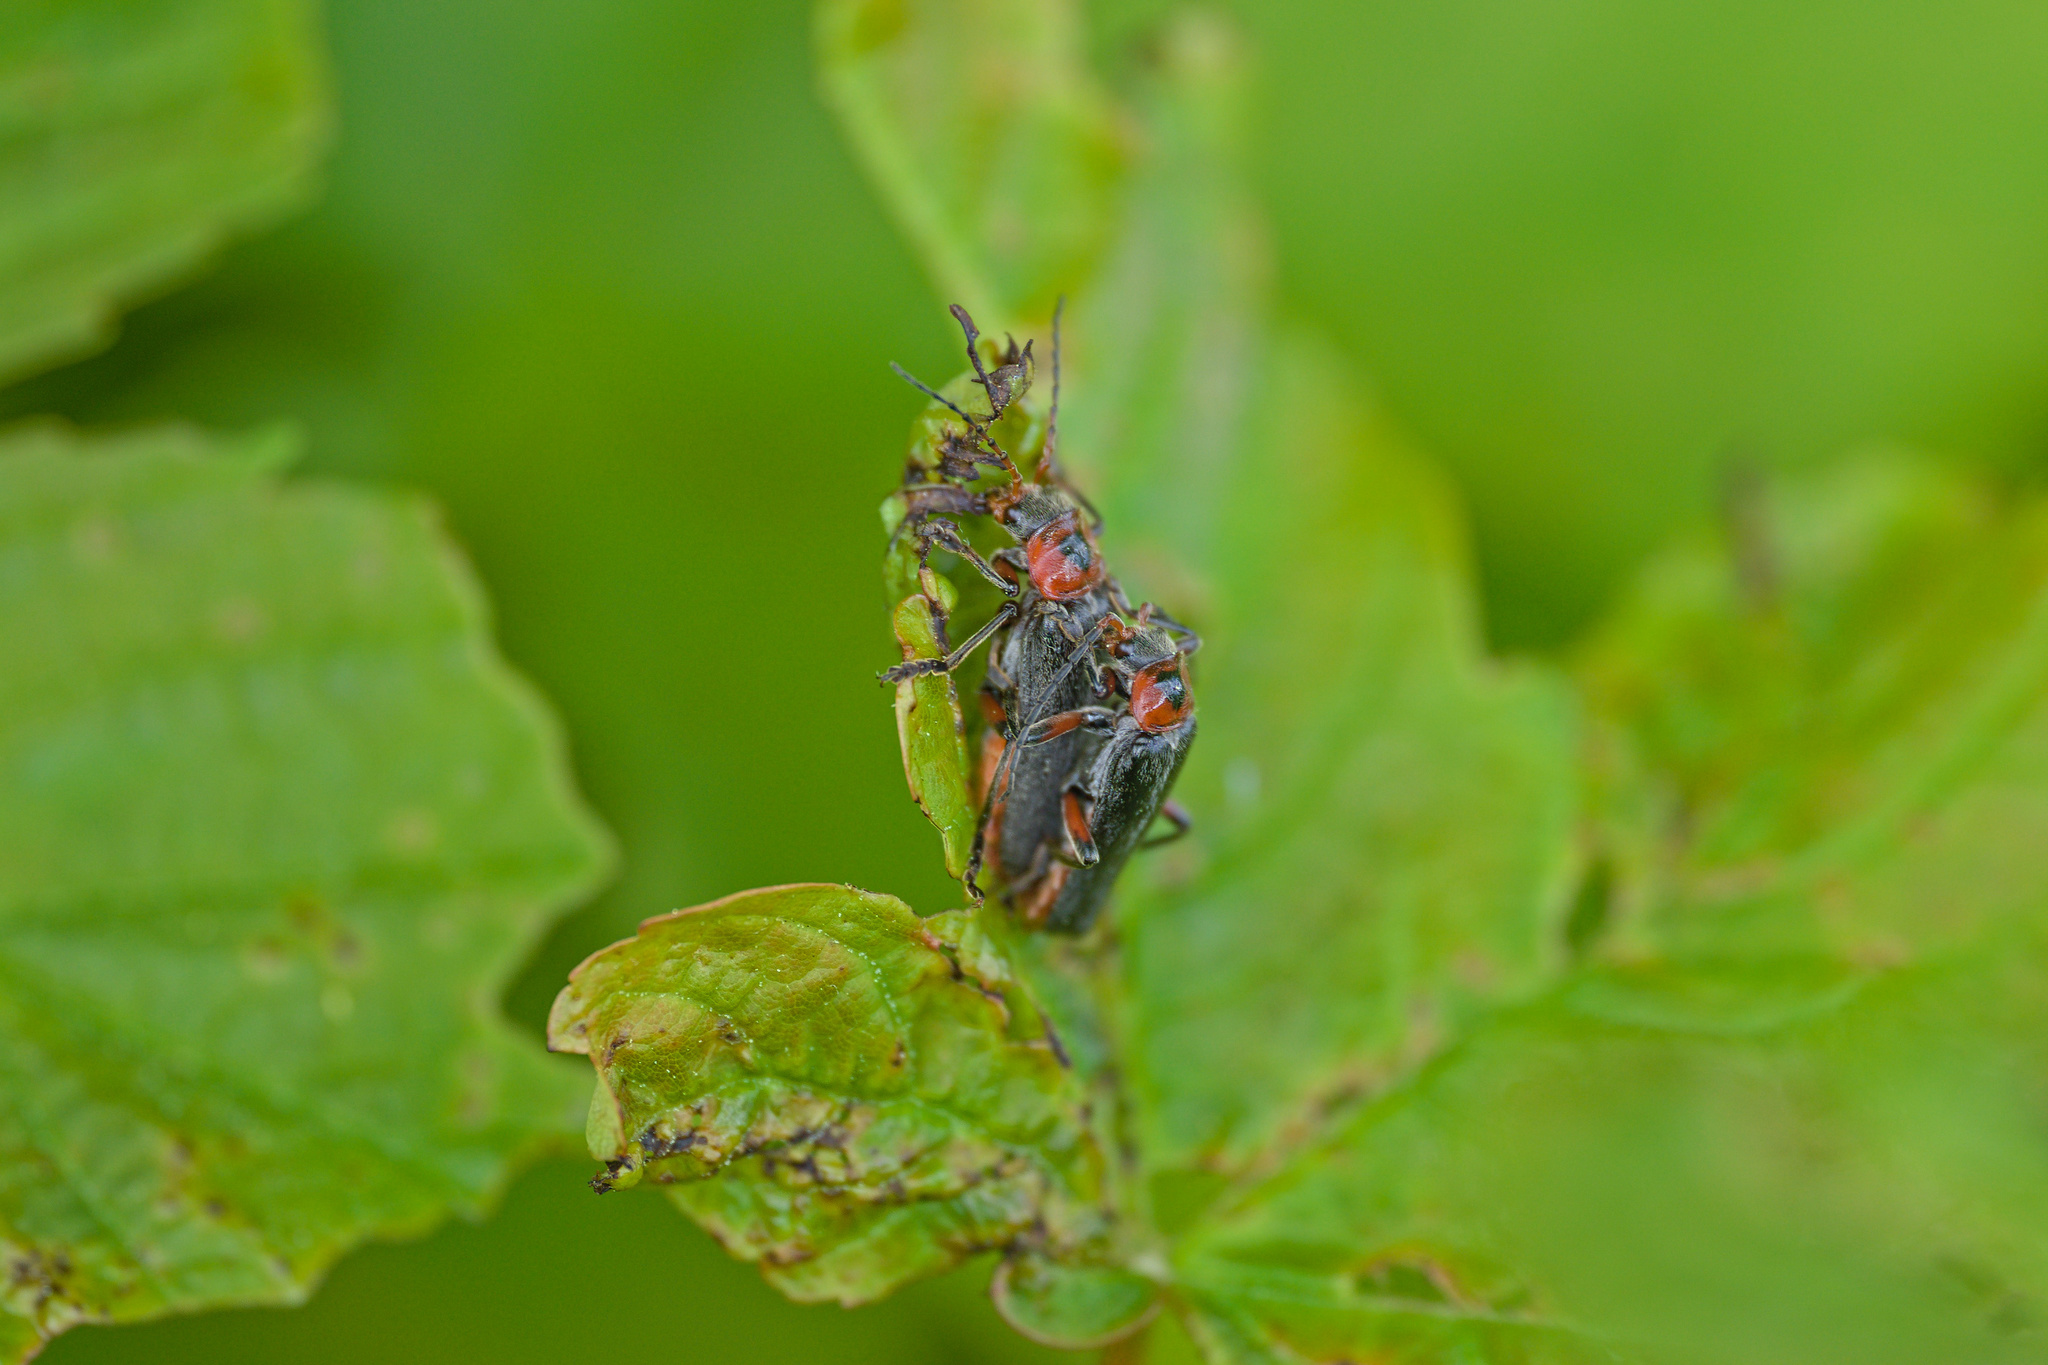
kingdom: Animalia
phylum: Arthropoda
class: Insecta
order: Coleoptera
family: Cantharidae
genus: Cantharis
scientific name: Cantharis rustica
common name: Soldier beetle
